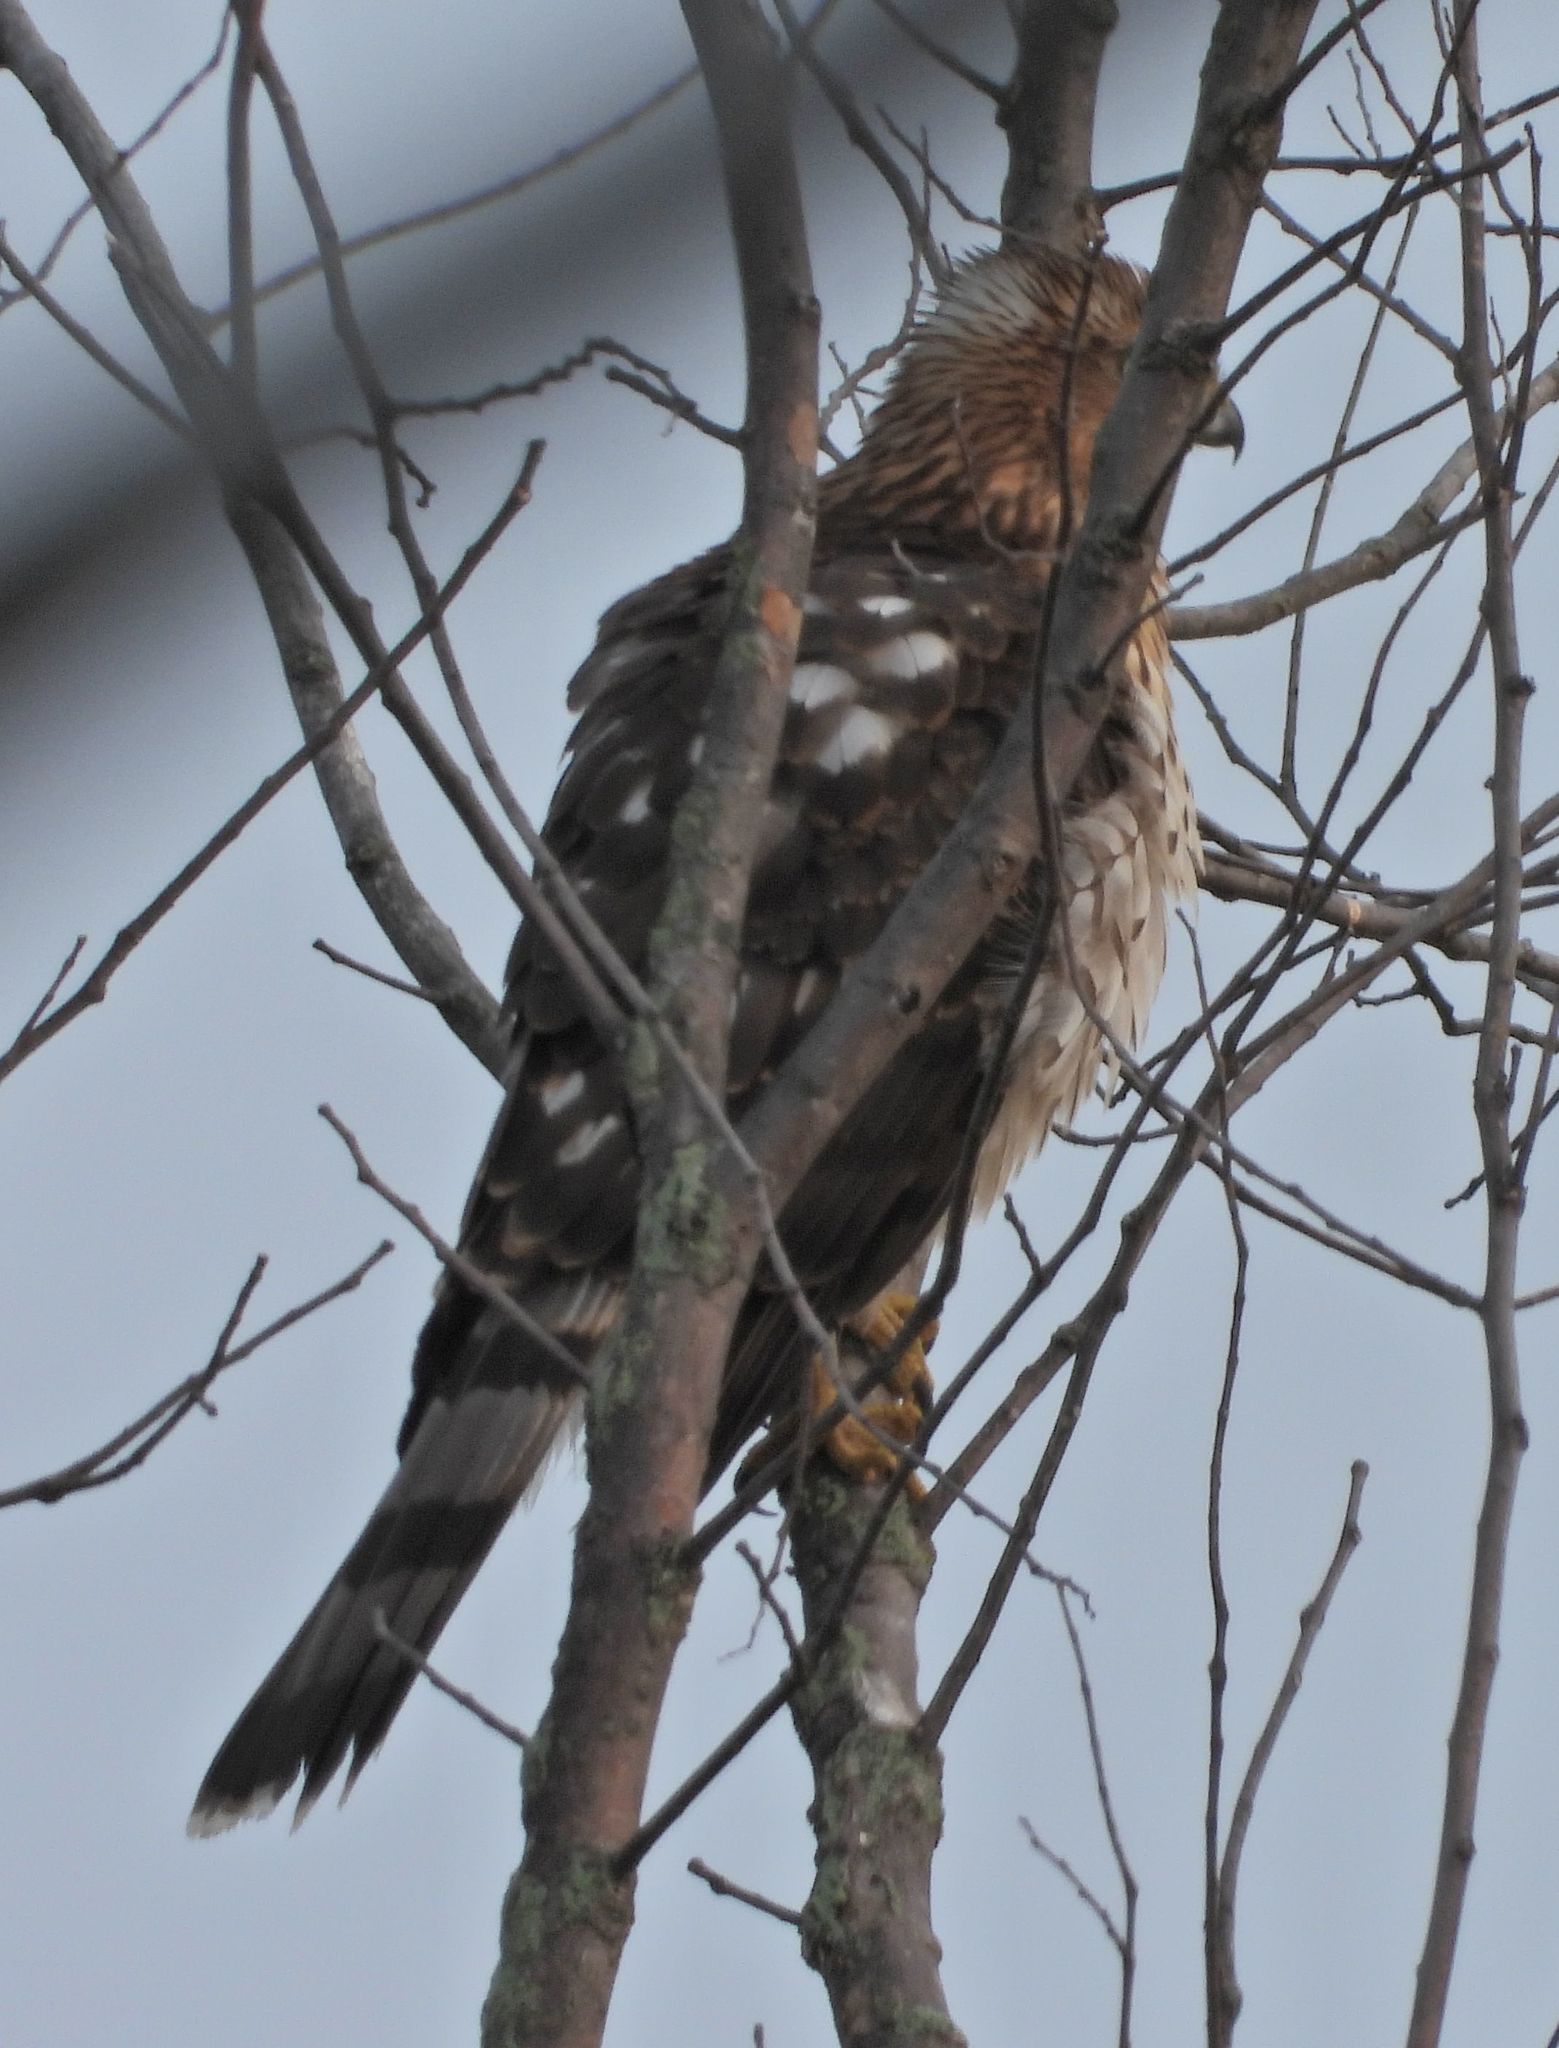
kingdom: Animalia
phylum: Chordata
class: Aves
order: Accipitriformes
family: Accipitridae
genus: Accipiter
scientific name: Accipiter cooperii
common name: Cooper's hawk
